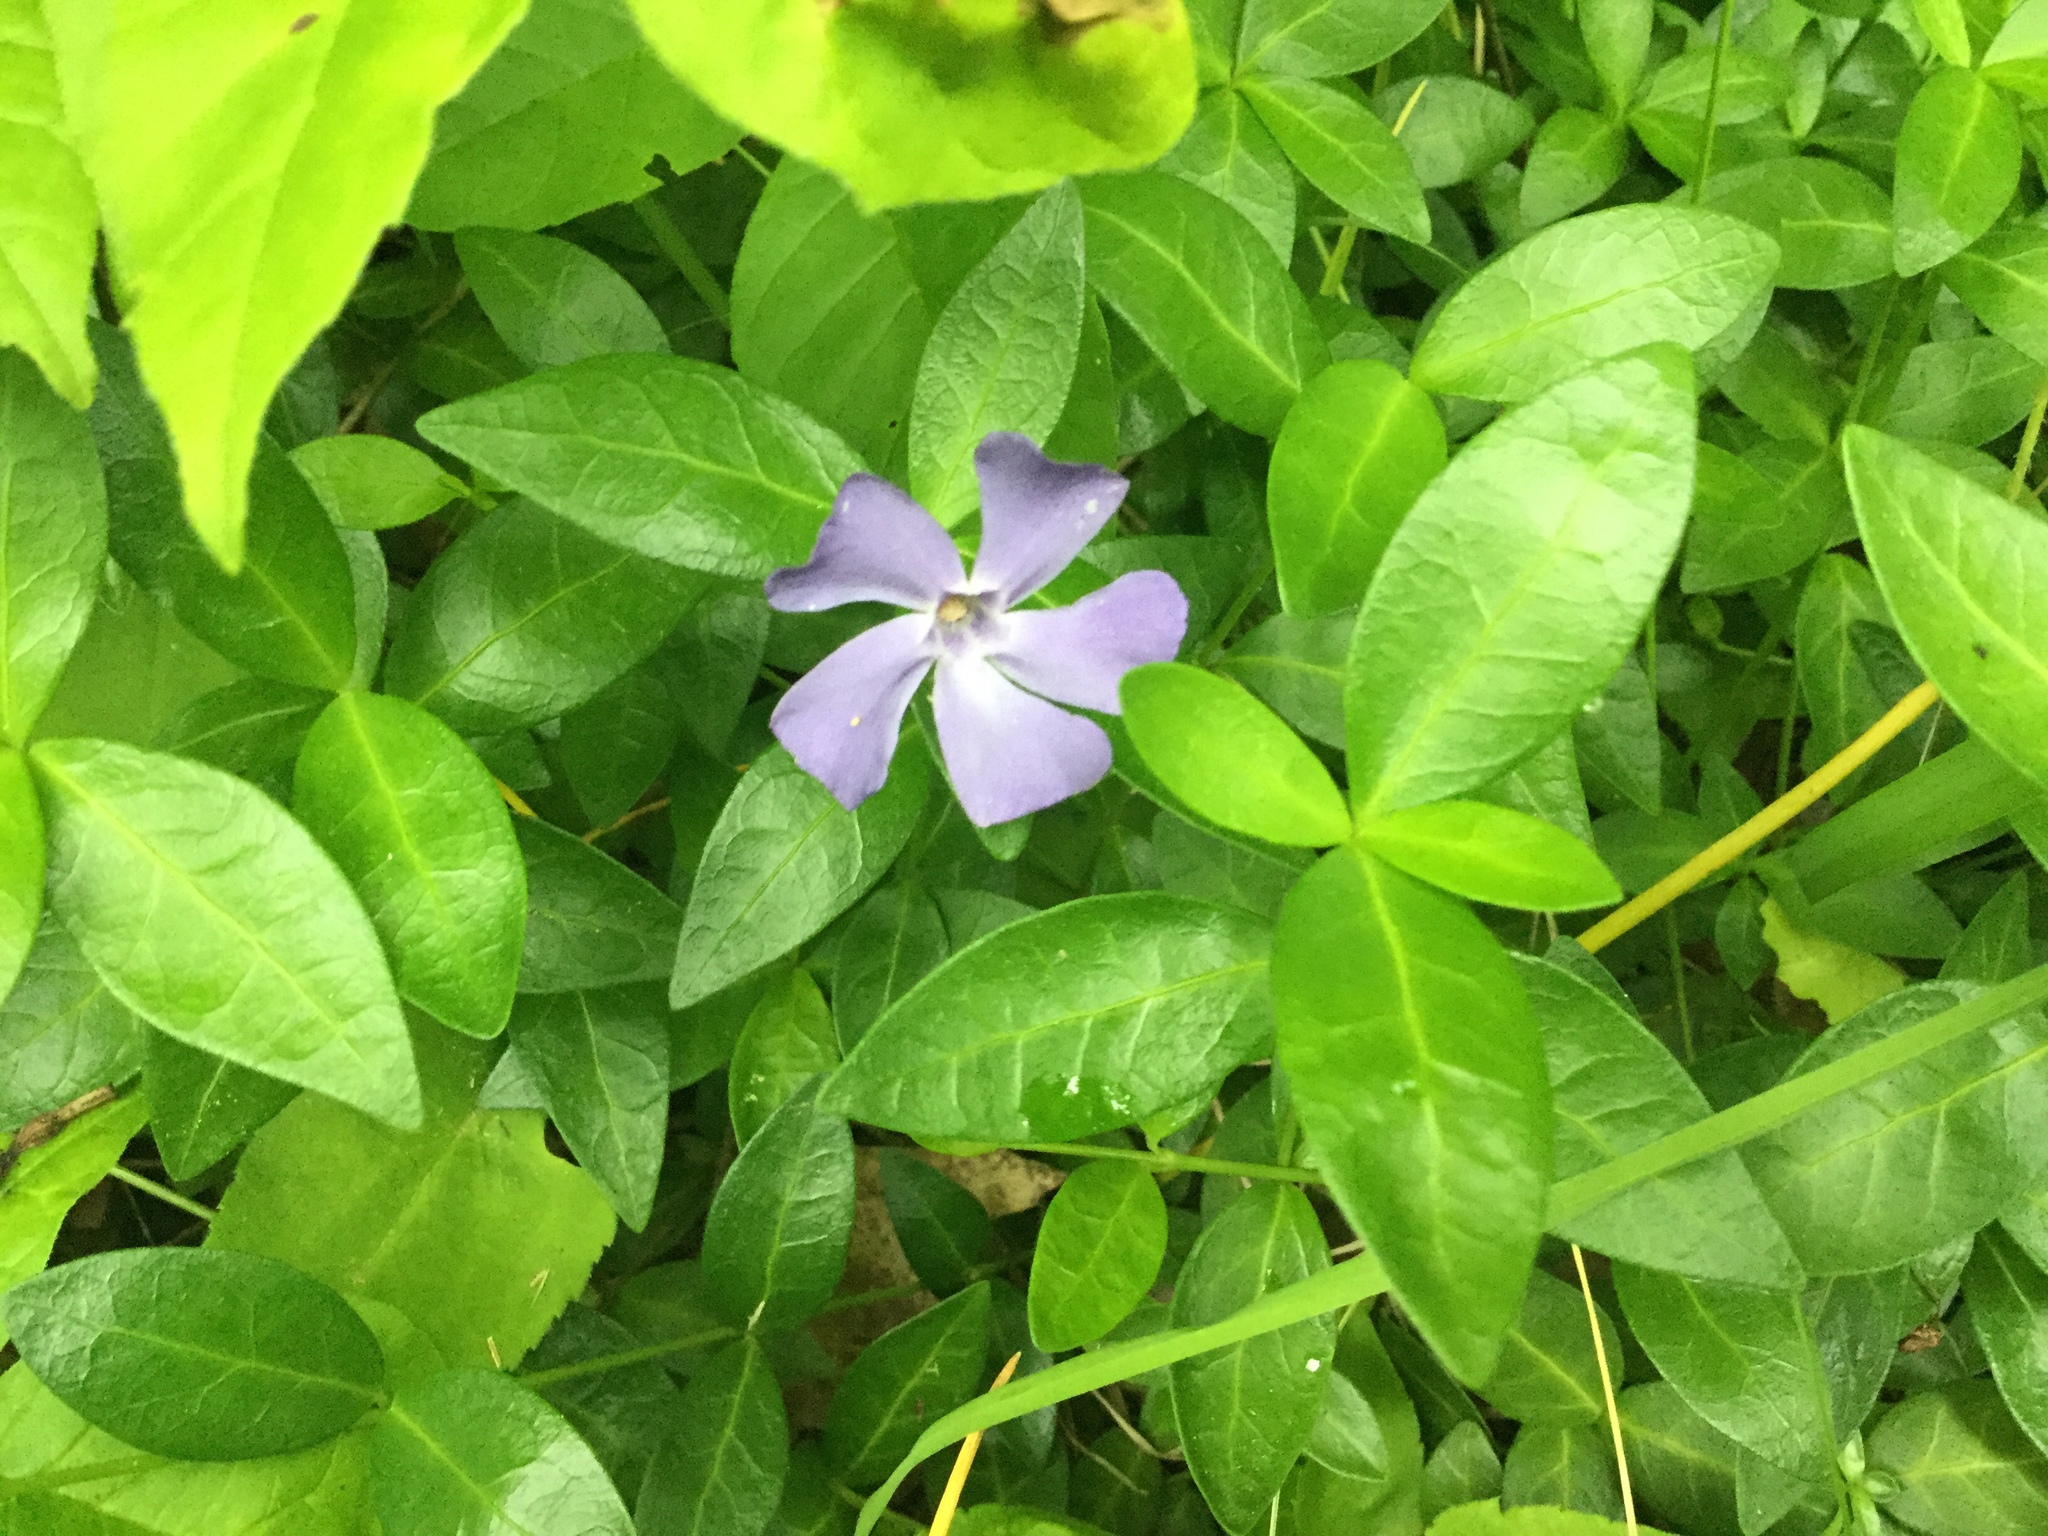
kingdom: Plantae
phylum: Tracheophyta
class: Magnoliopsida
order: Gentianales
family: Apocynaceae
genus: Vinca
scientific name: Vinca minor
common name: Lesser periwinkle
